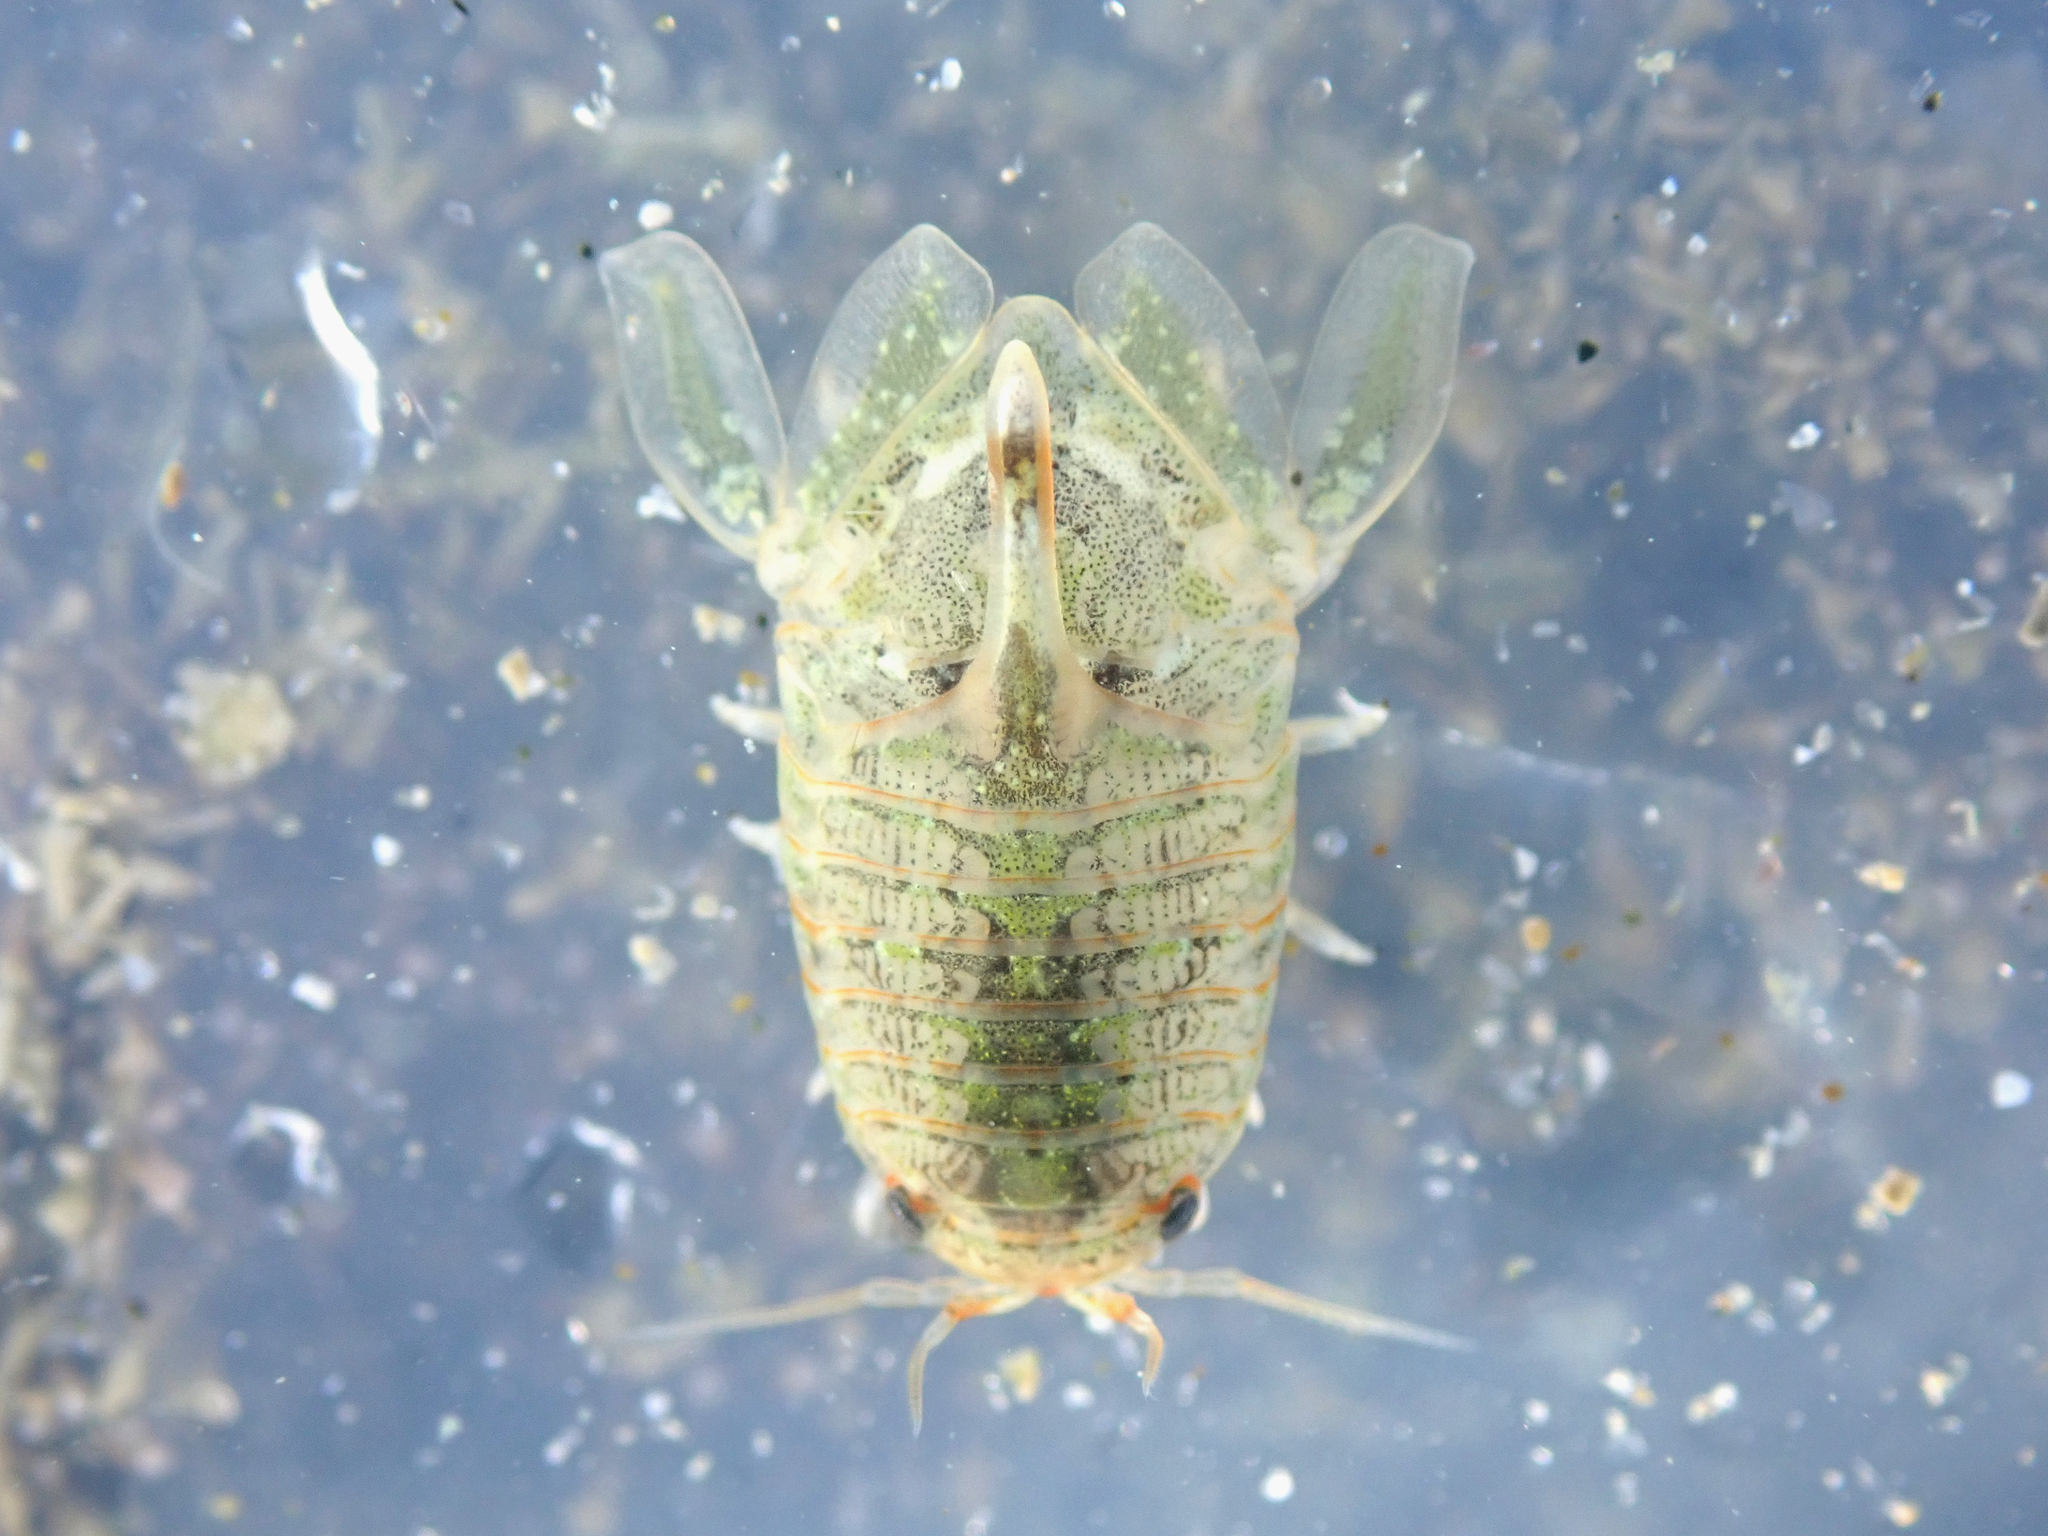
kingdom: Animalia
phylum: Arthropoda
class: Malacostraca
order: Isopoda
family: Sphaeromatidae
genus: Isocladus
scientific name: Isocladus reconditus
